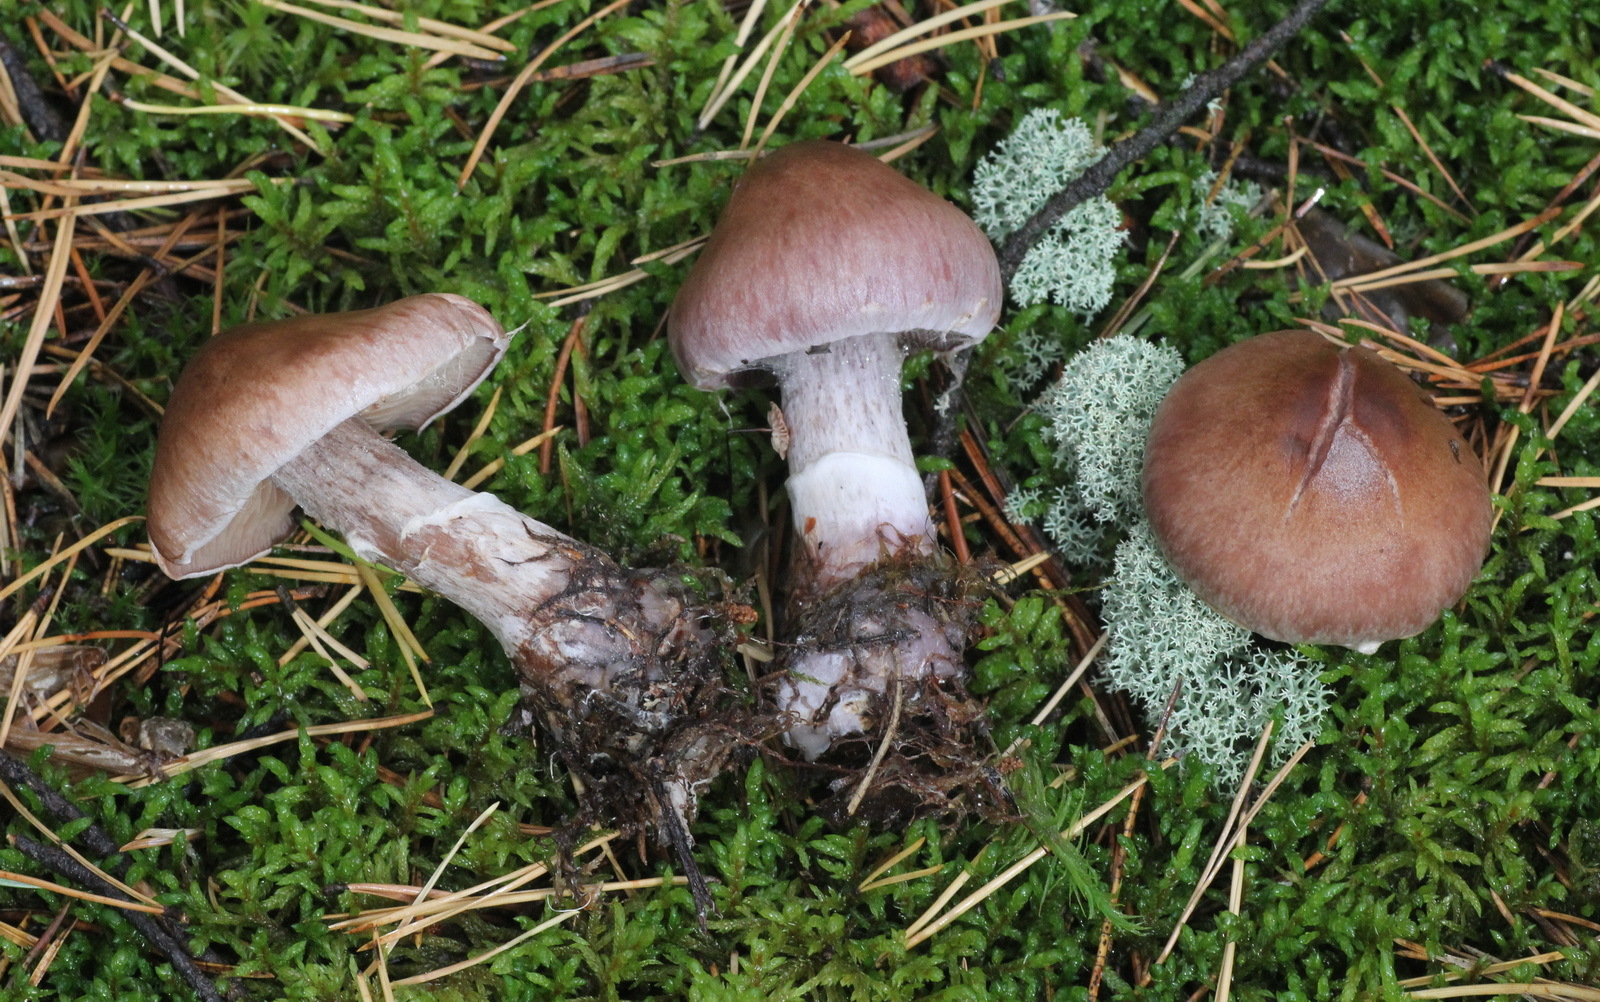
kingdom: Fungi
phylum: Basidiomycota
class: Agaricomycetes
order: Agaricales
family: Cortinariaceae
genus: Cortinarius
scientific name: Cortinarius suberi
